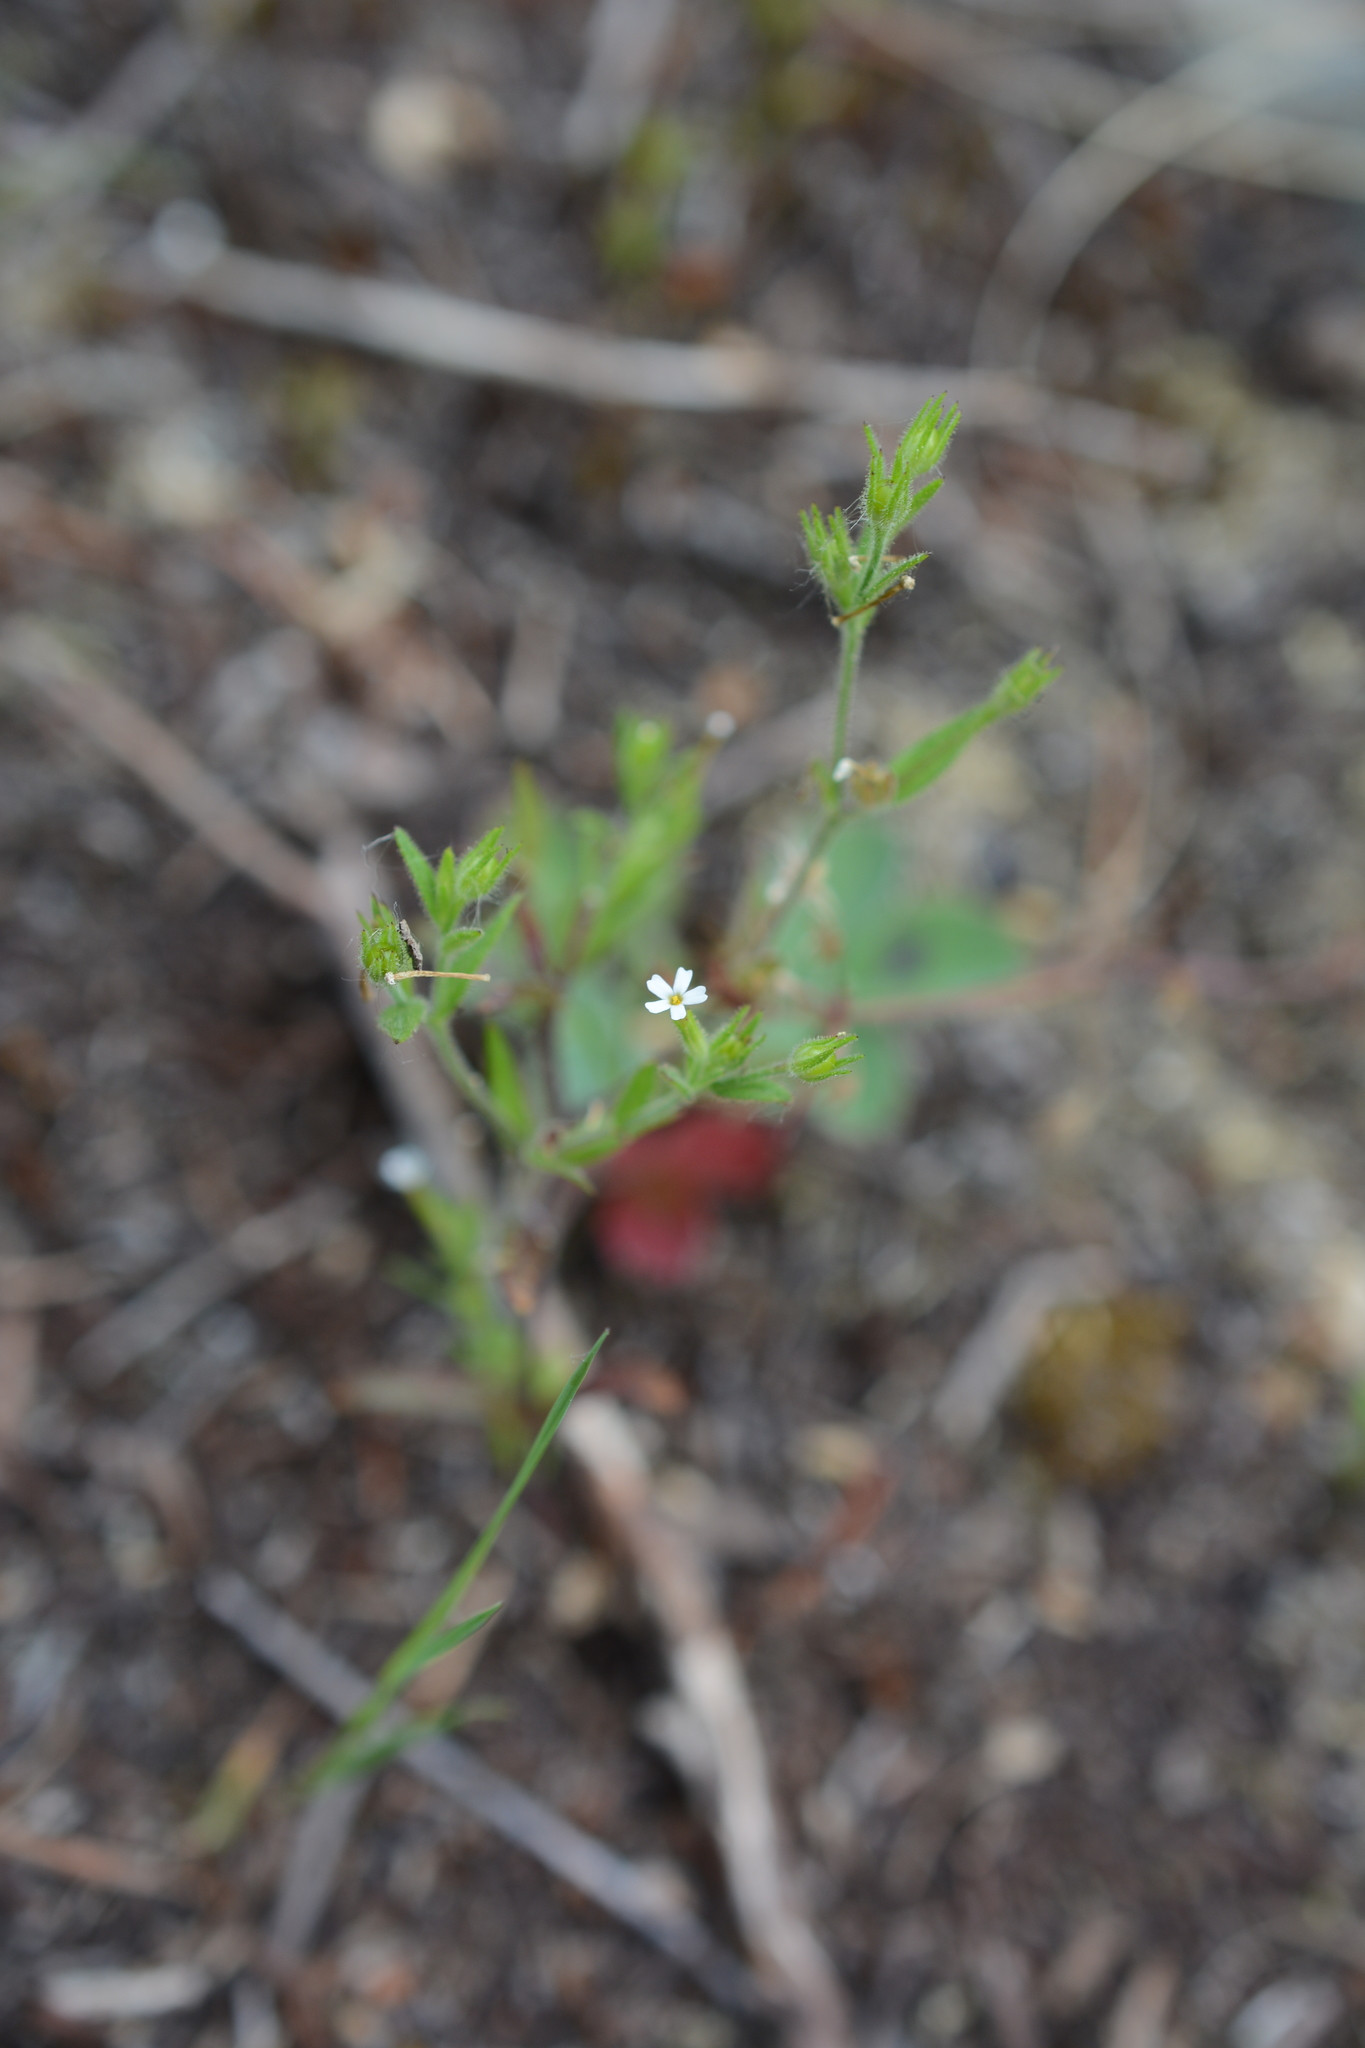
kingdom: Plantae
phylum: Tracheophyta
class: Magnoliopsida
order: Ericales
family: Polemoniaceae
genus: Phlox
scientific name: Phlox gracilis
